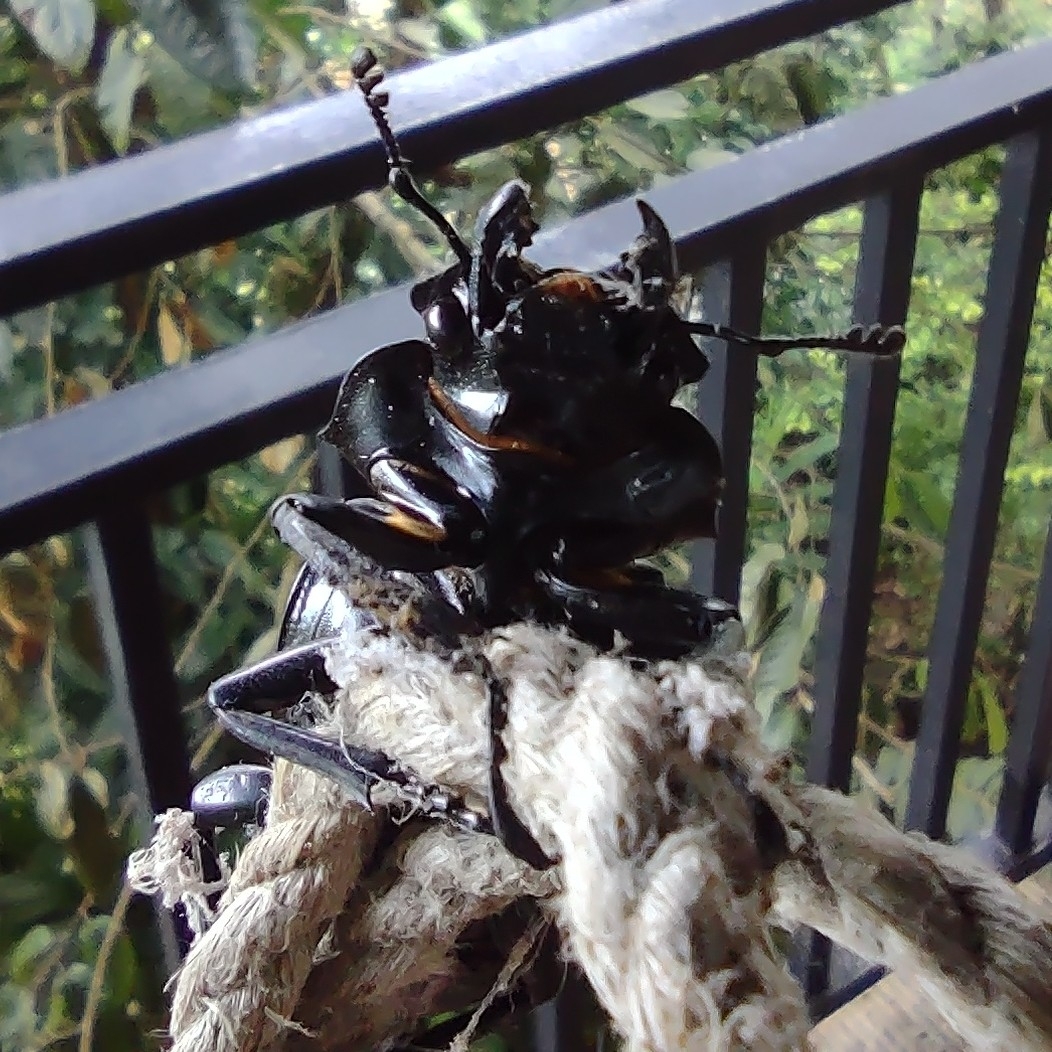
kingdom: Animalia
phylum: Arthropoda
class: Insecta
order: Coleoptera
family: Lucanidae
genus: Odontolabis
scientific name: Odontolabis intermedia
